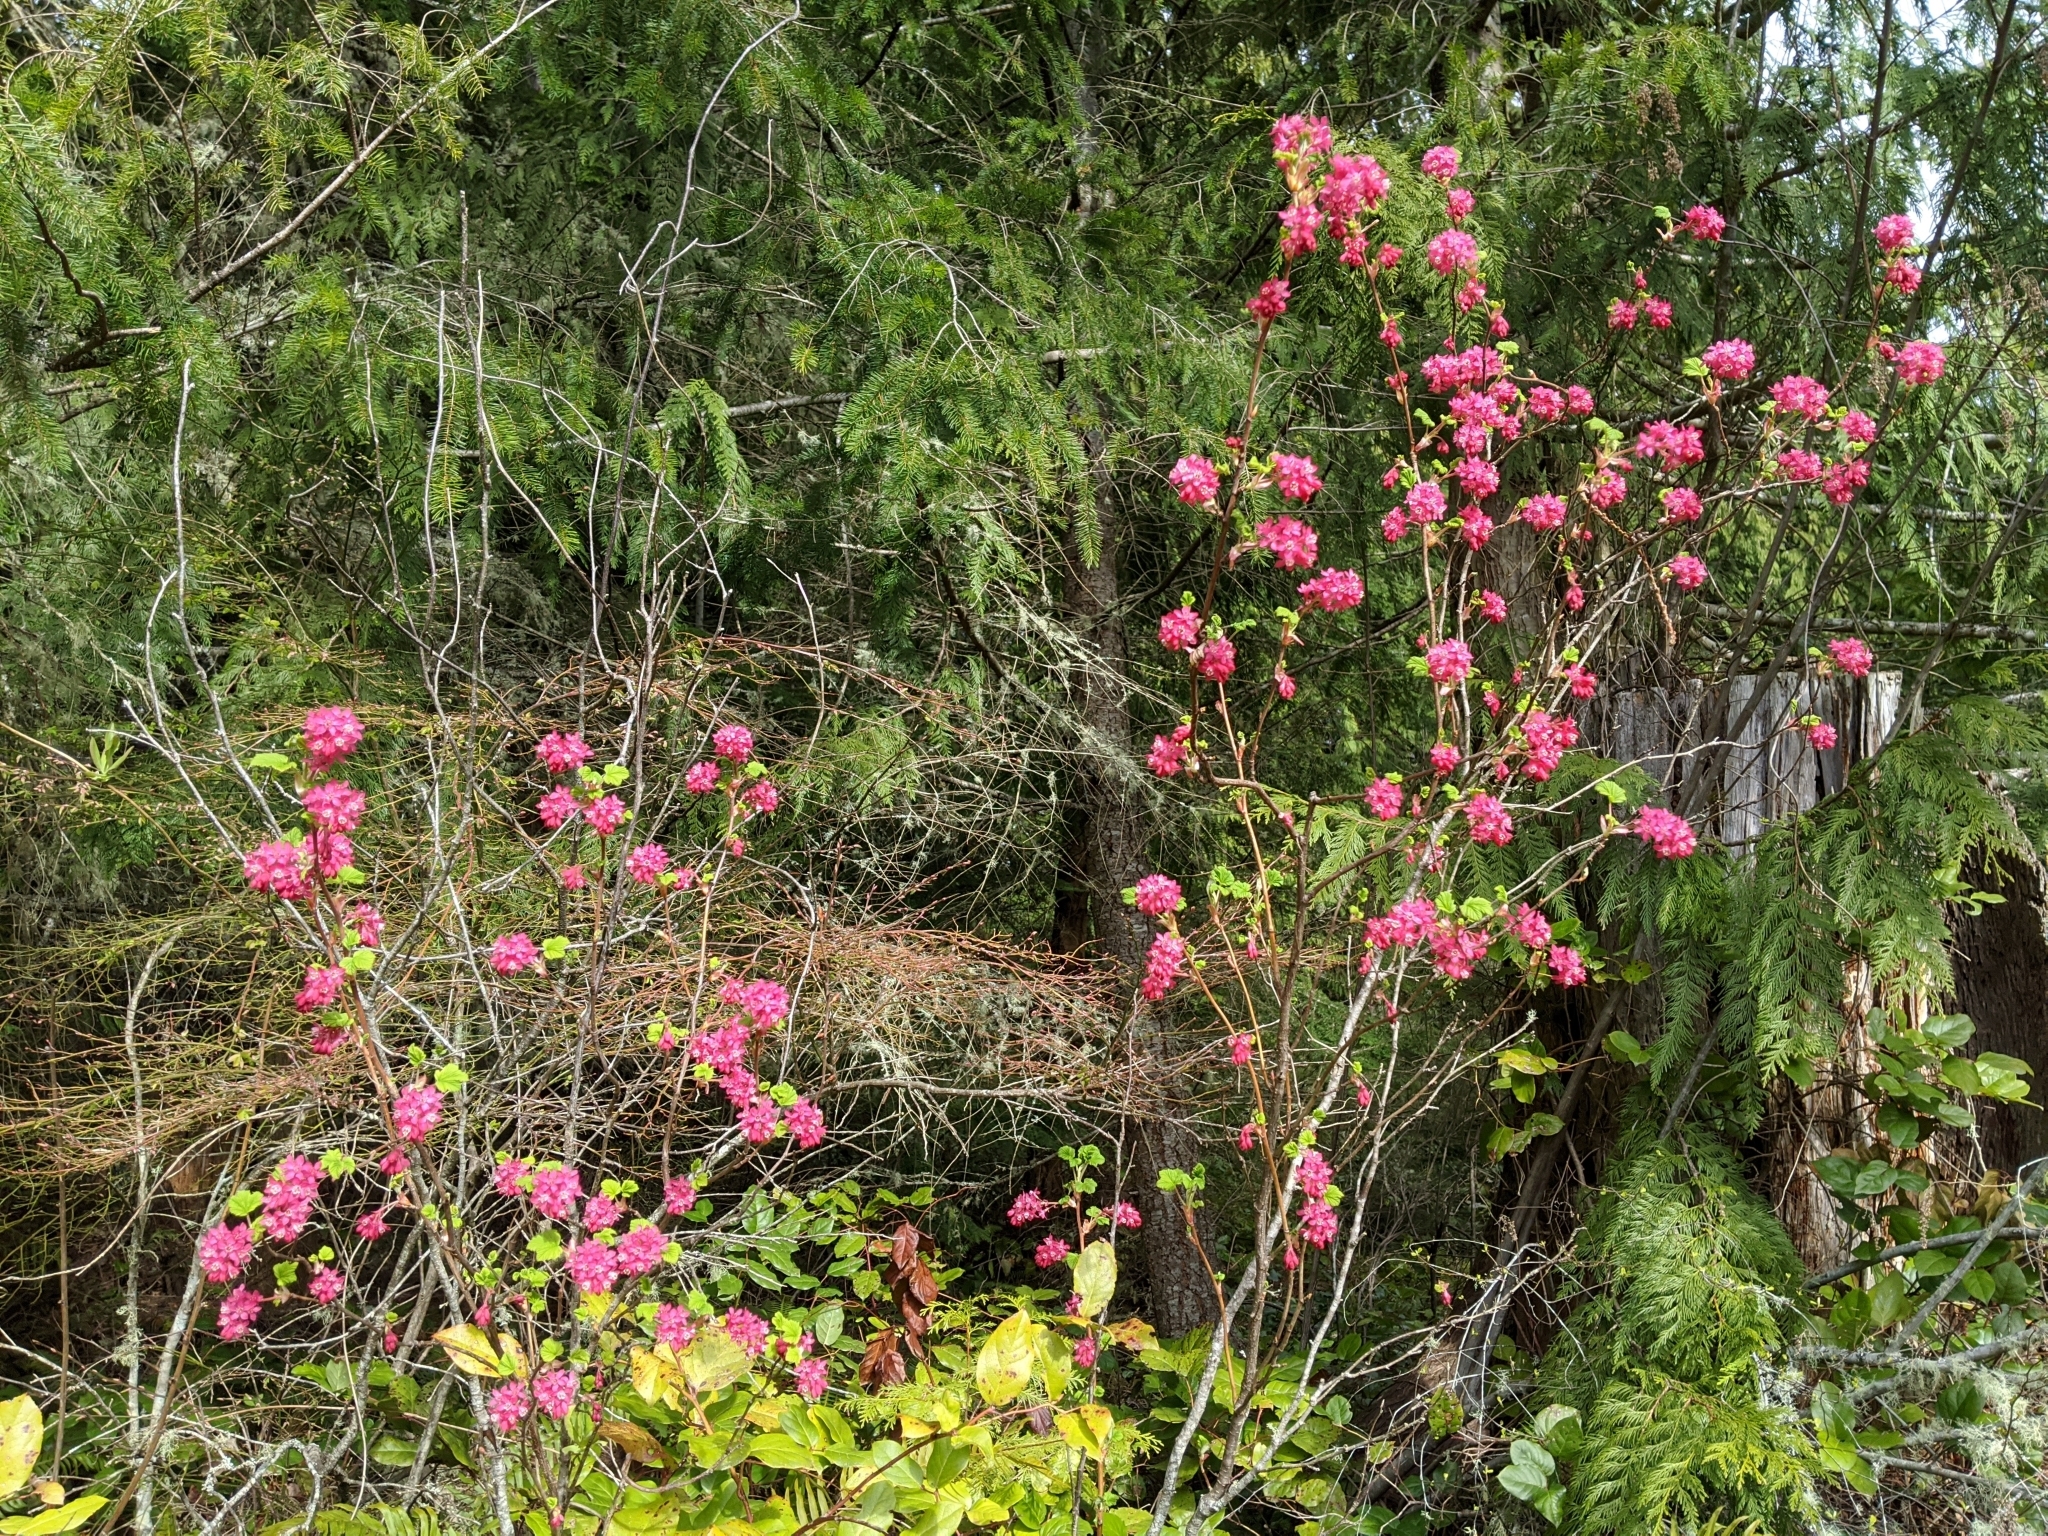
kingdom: Plantae
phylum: Tracheophyta
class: Magnoliopsida
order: Saxifragales
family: Grossulariaceae
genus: Ribes
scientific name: Ribes sanguineum
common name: Flowering currant
